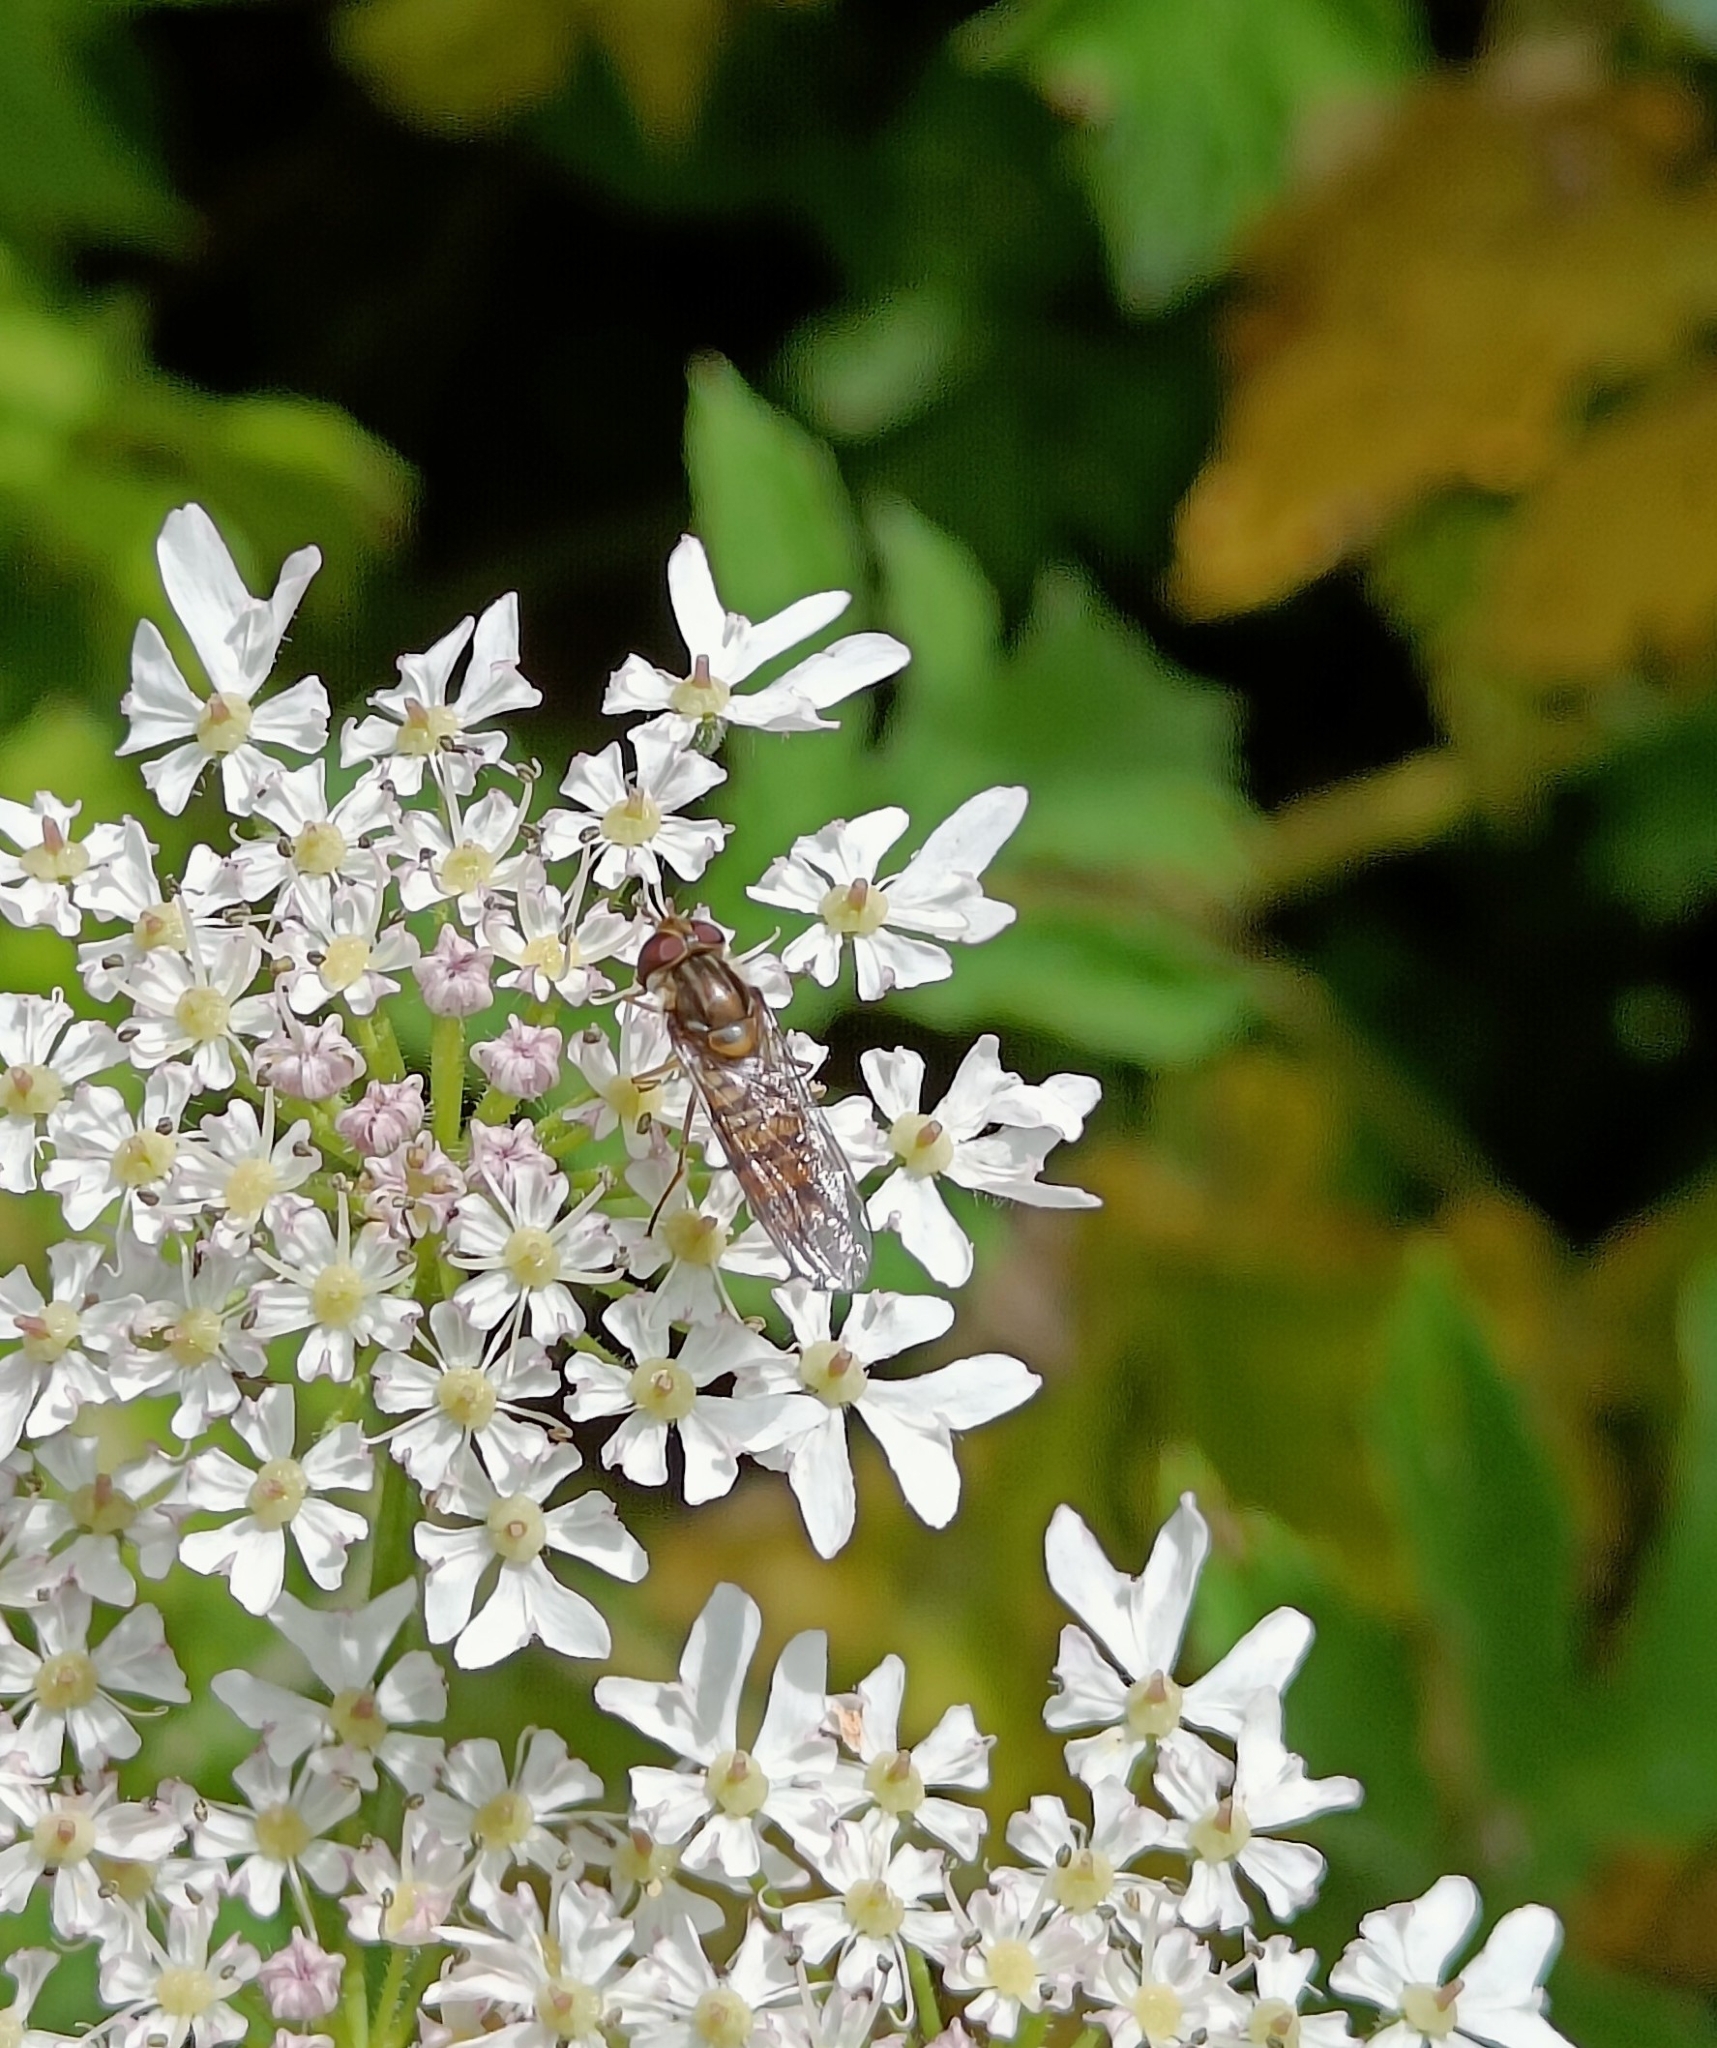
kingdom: Animalia
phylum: Arthropoda
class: Insecta
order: Diptera
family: Syrphidae
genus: Episyrphus
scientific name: Episyrphus balteatus
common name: Marmalade hoverfly
